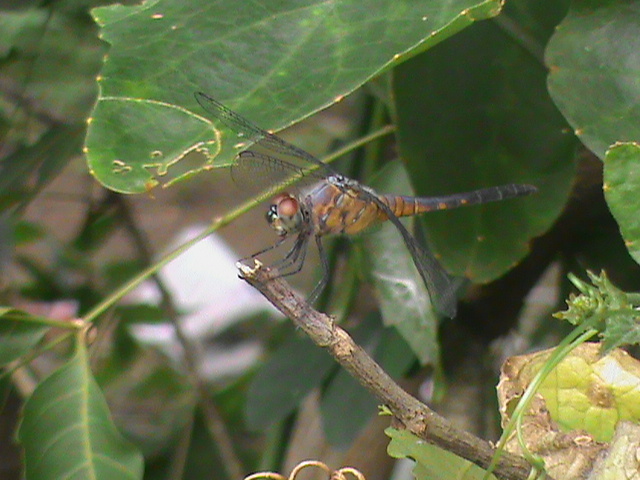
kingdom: Animalia
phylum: Arthropoda
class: Insecta
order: Odonata
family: Libellulidae
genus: Brachydiplax
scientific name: Brachydiplax chalybea
